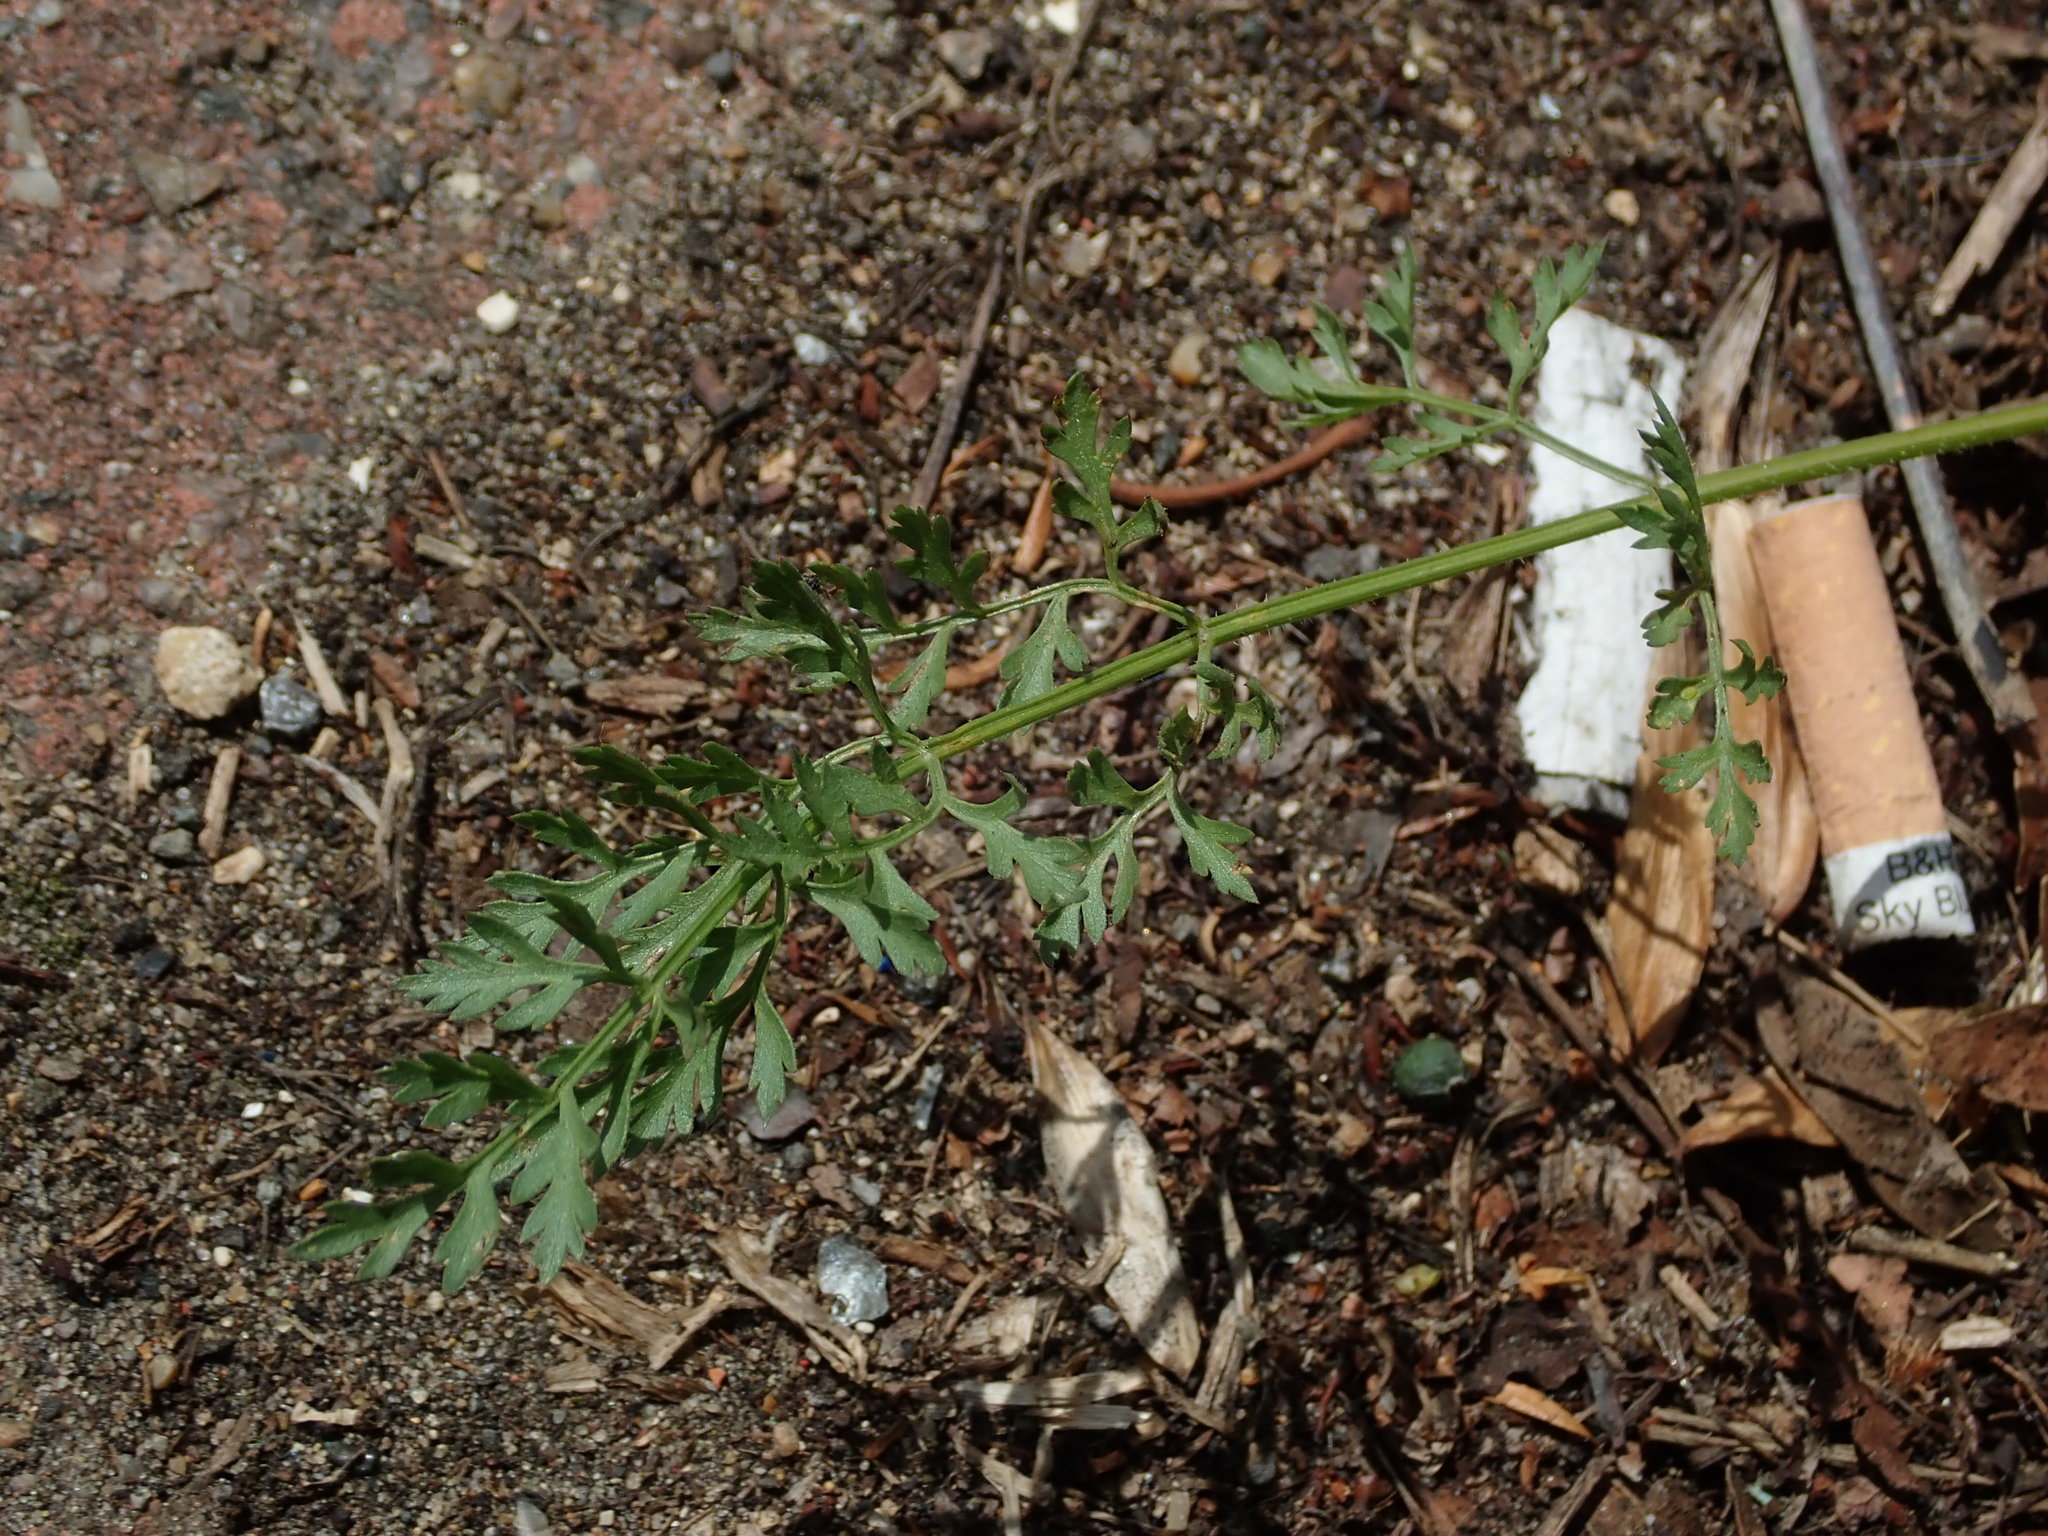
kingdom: Plantae
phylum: Tracheophyta
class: Magnoliopsida
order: Apiales
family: Apiaceae
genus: Daucus
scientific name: Daucus carota
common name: Wild carrot
